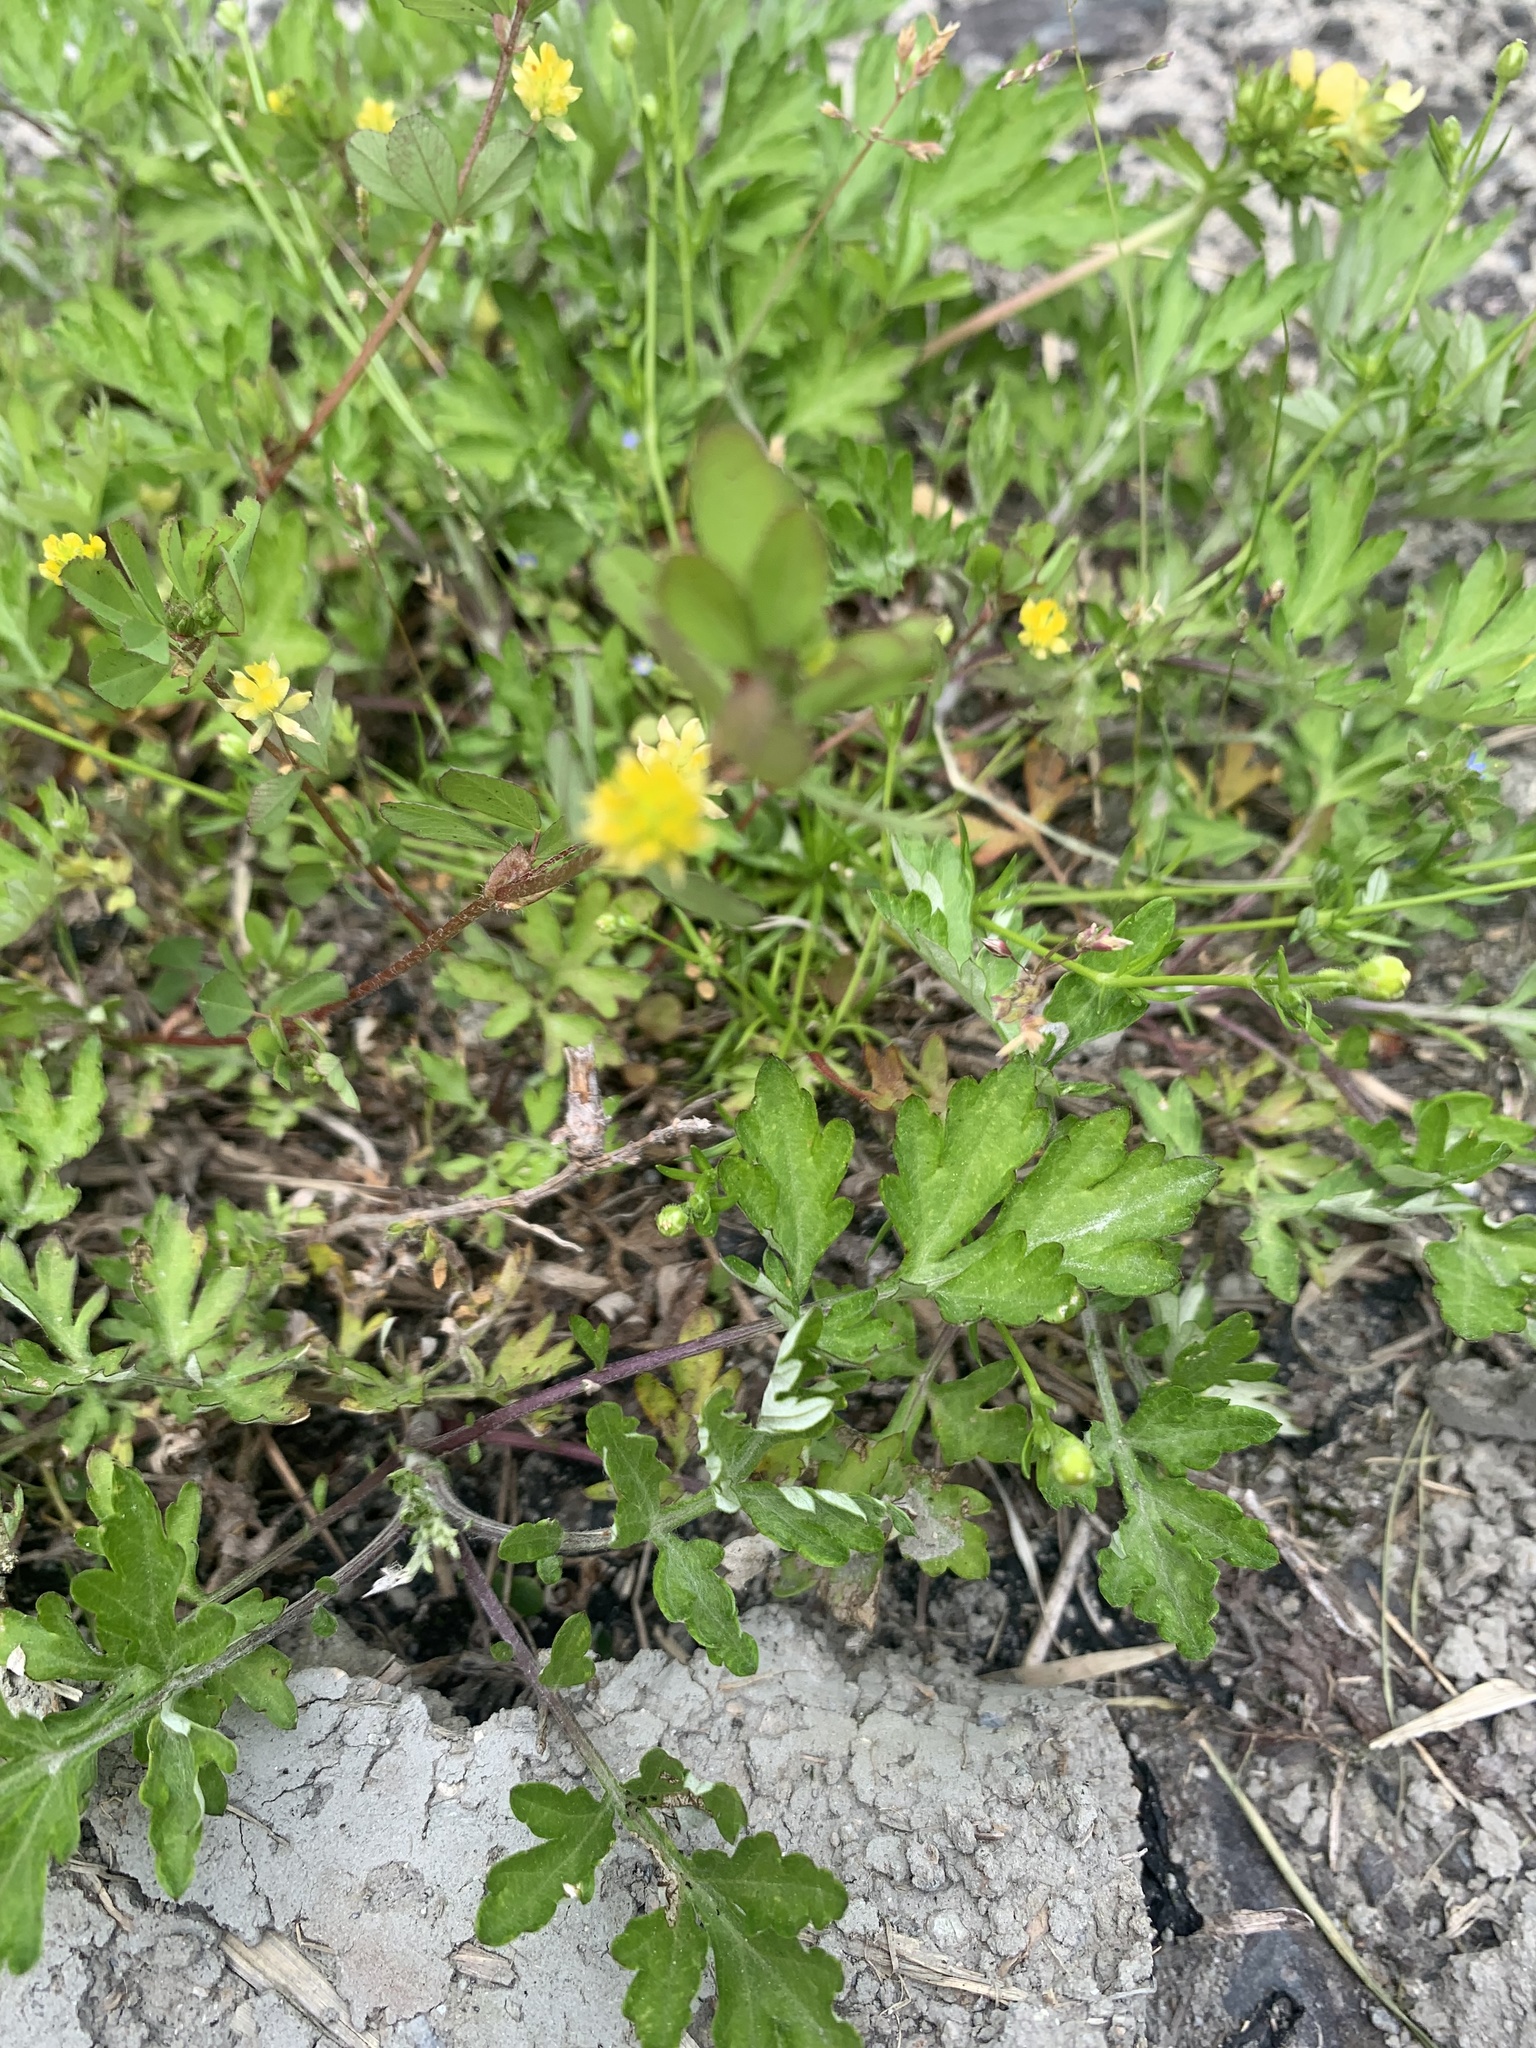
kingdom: Plantae
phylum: Tracheophyta
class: Magnoliopsida
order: Fabales
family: Fabaceae
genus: Trifolium
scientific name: Trifolium dubium
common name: Suckling clover
